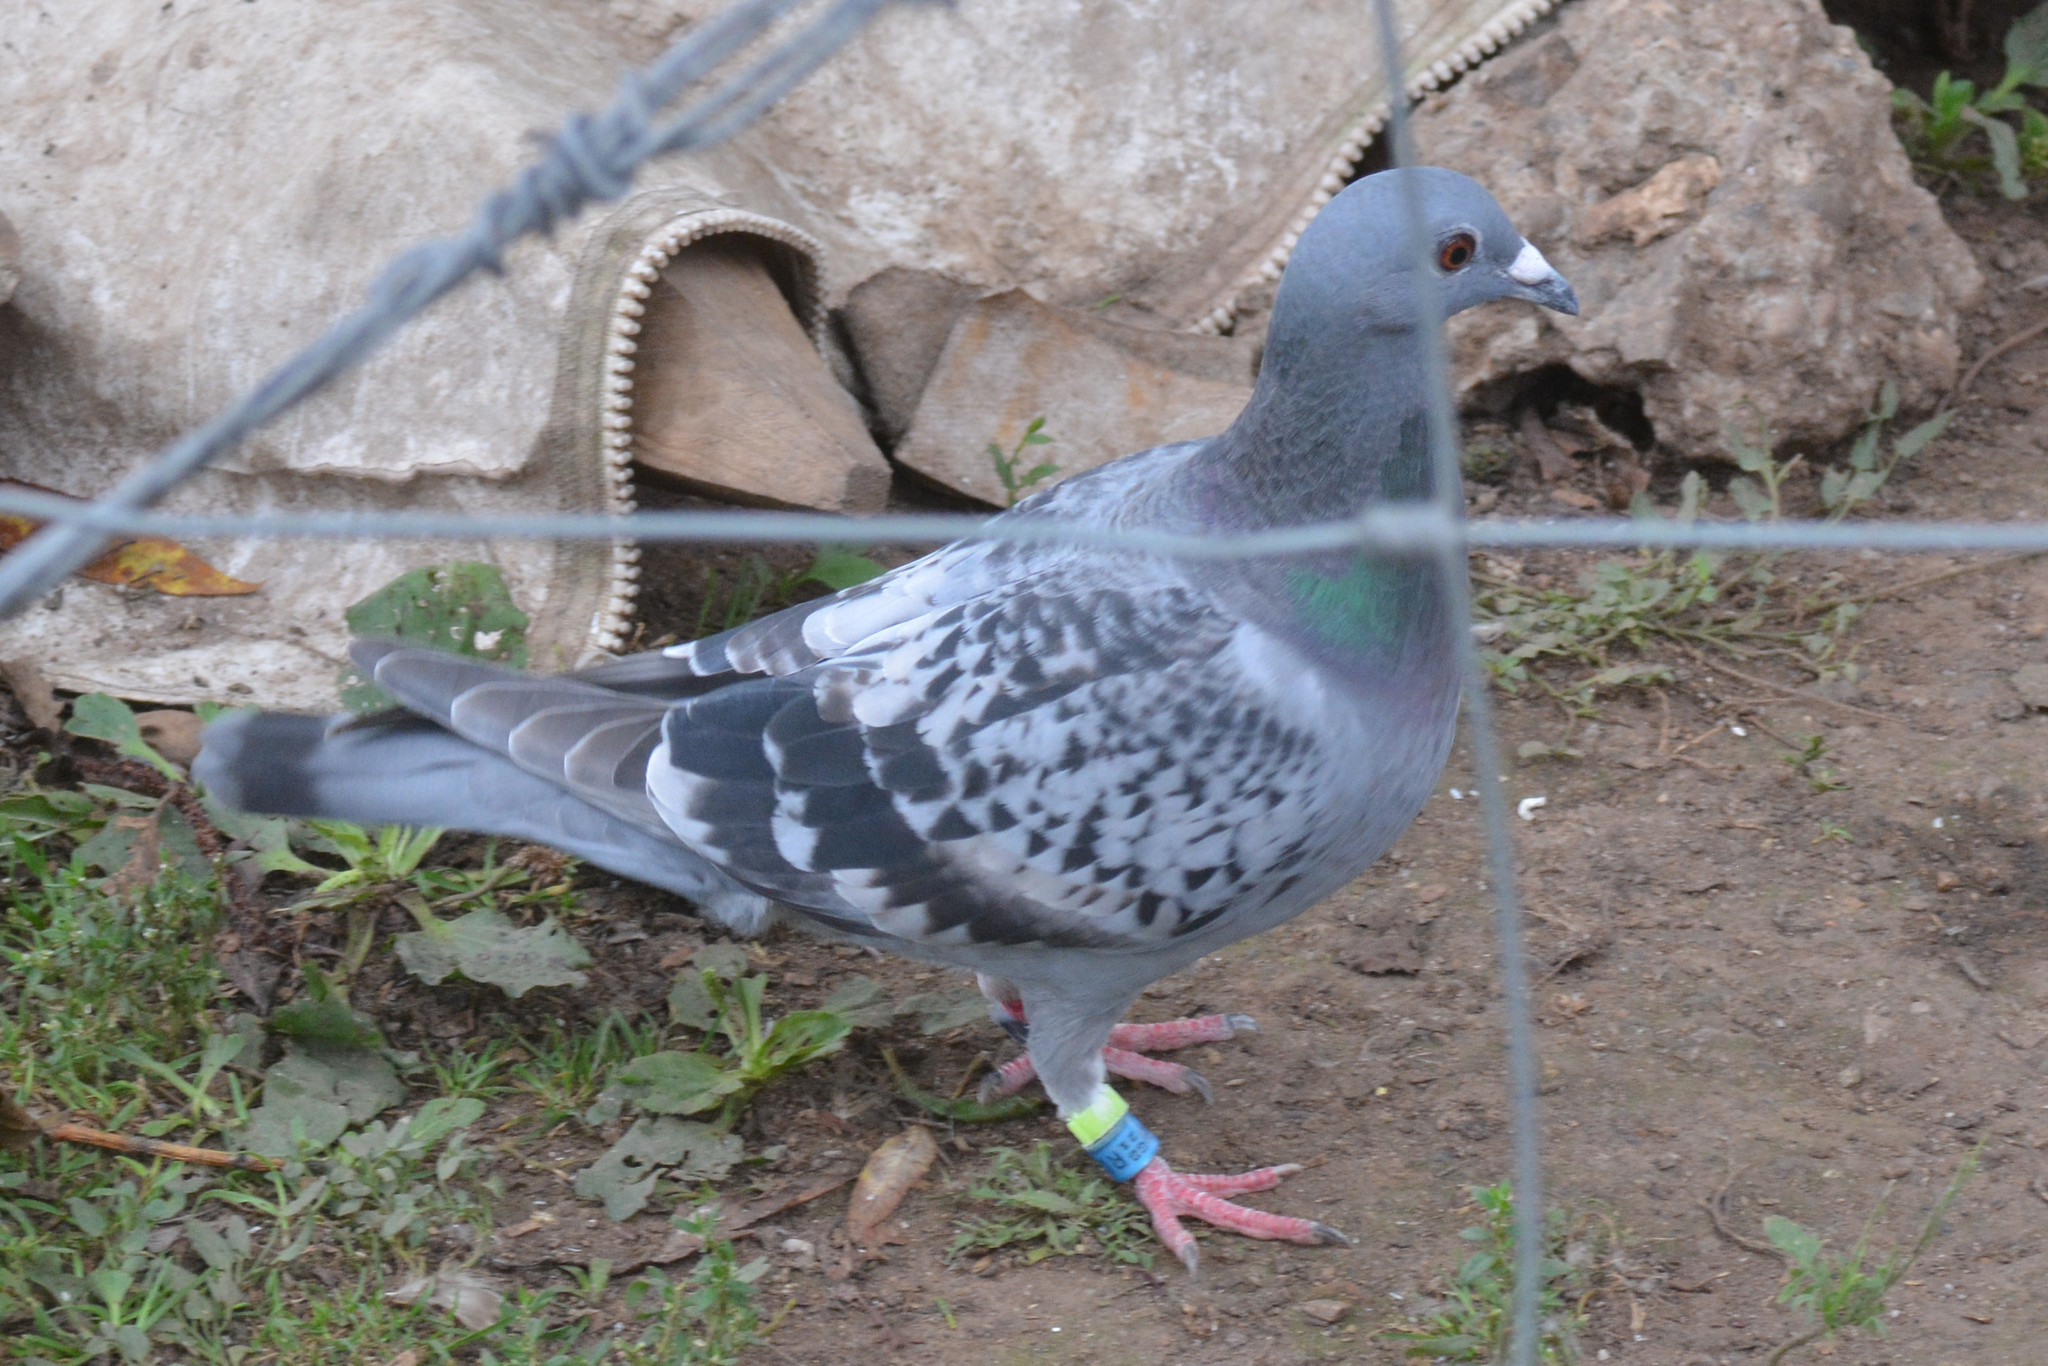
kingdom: Animalia
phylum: Chordata
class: Aves
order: Columbiformes
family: Columbidae
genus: Columba
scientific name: Columba livia
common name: Rock pigeon
